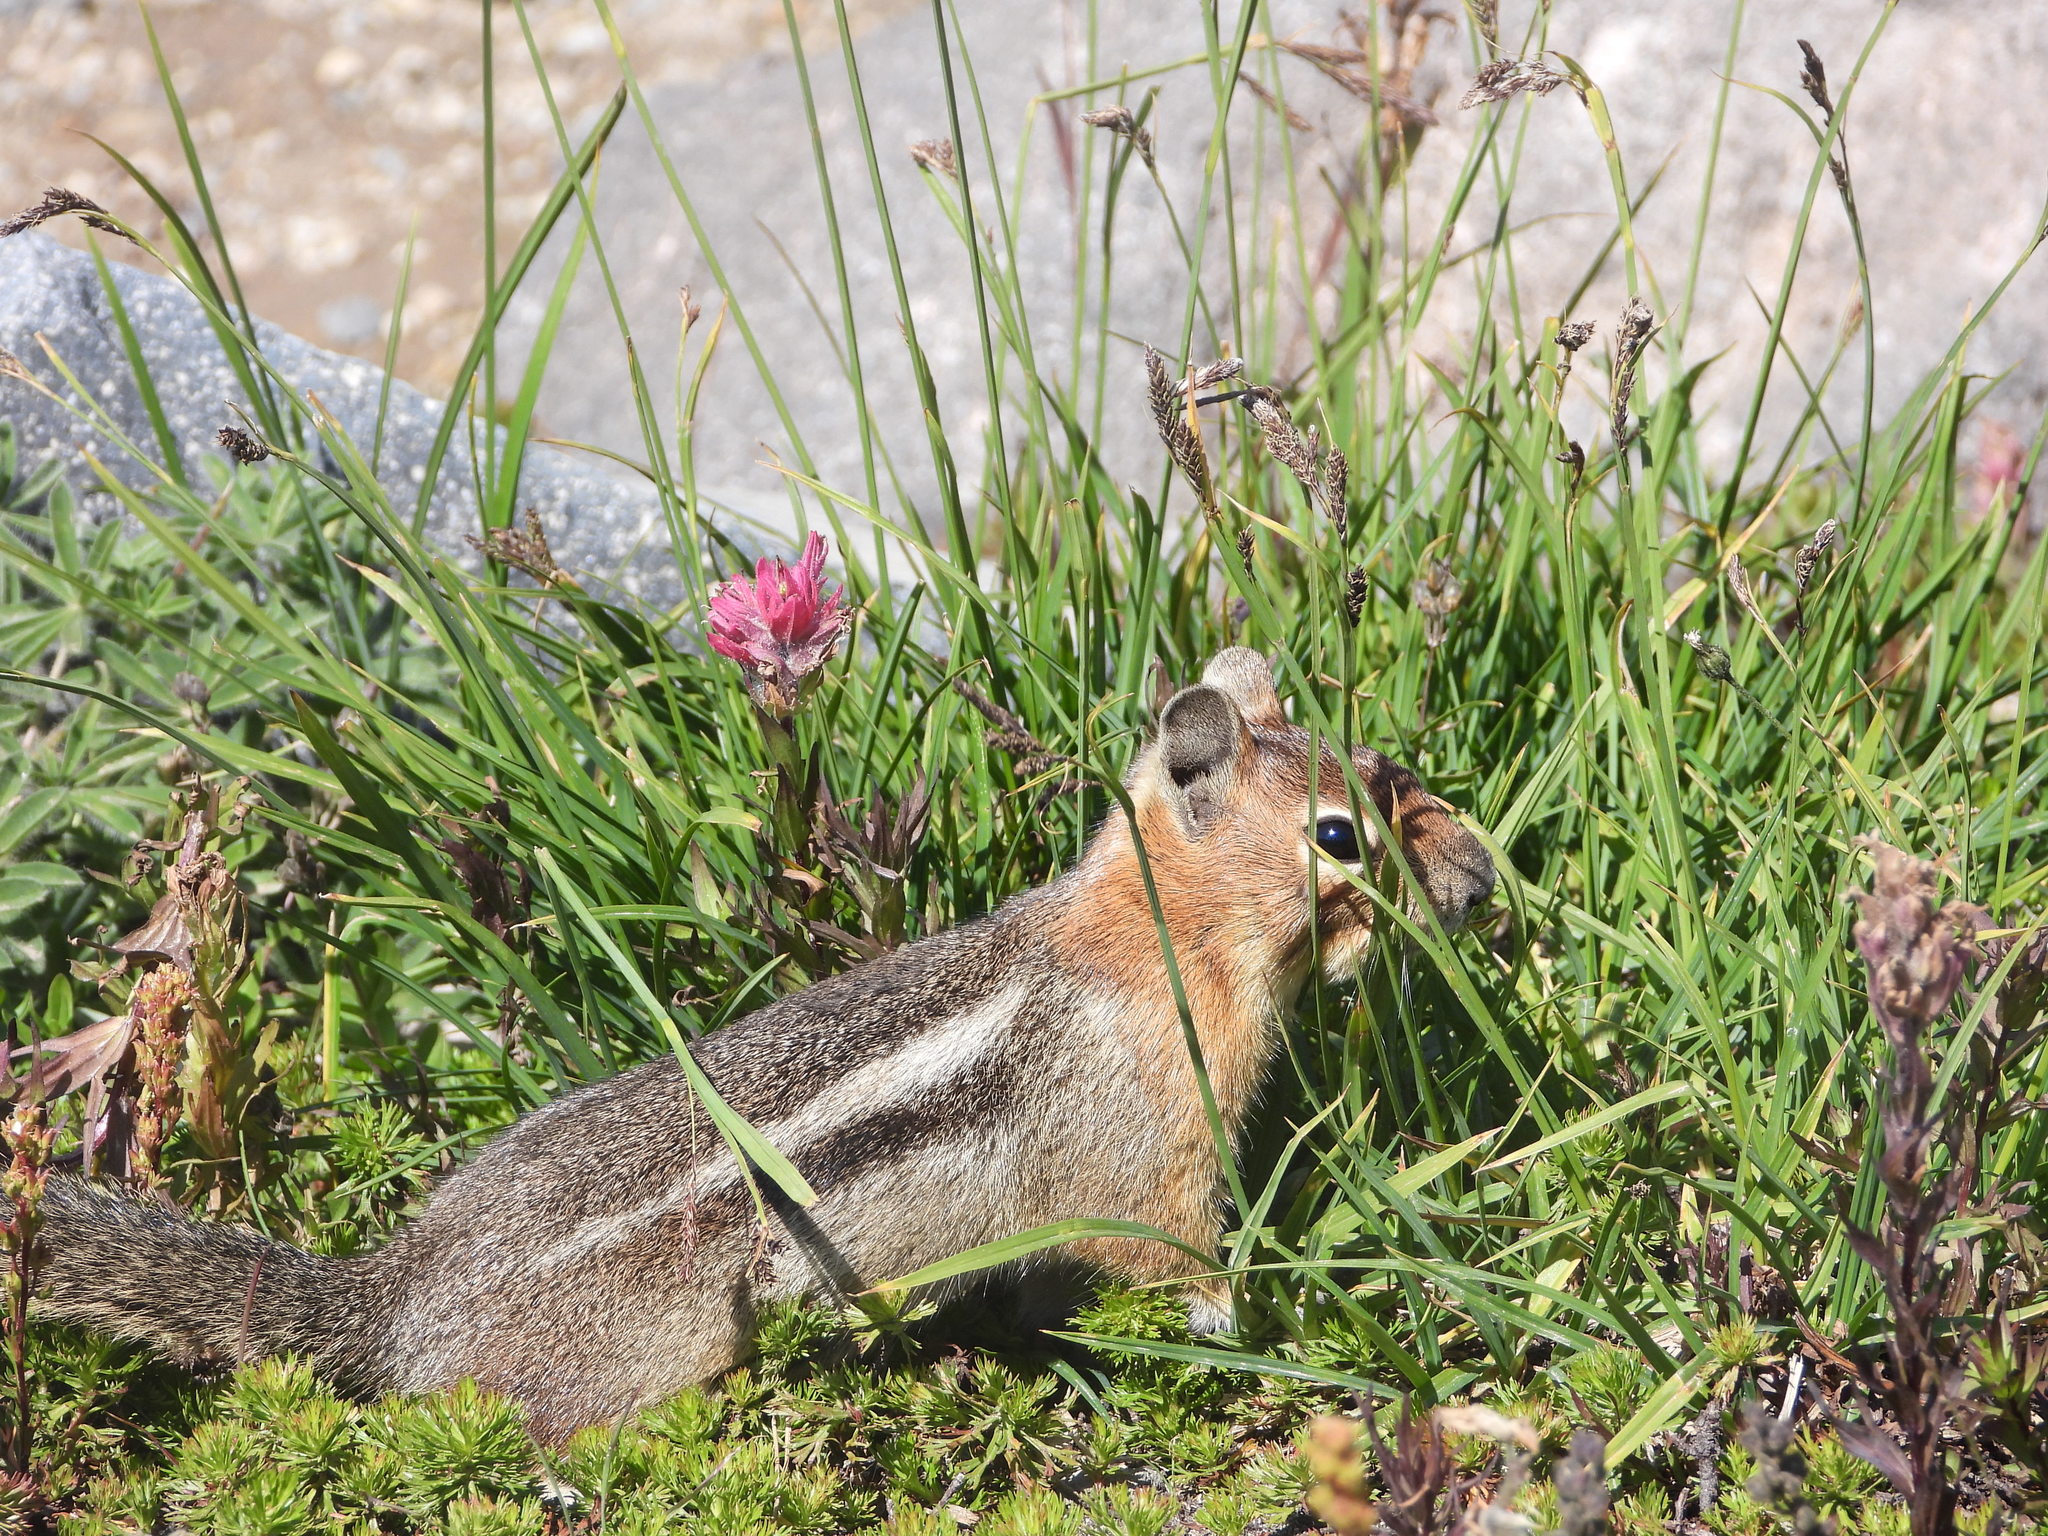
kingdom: Animalia
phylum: Chordata
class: Mammalia
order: Rodentia
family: Sciuridae
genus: Callospermophilus
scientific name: Callospermophilus saturatus
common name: Cascade golden-mantled ground squirrel
